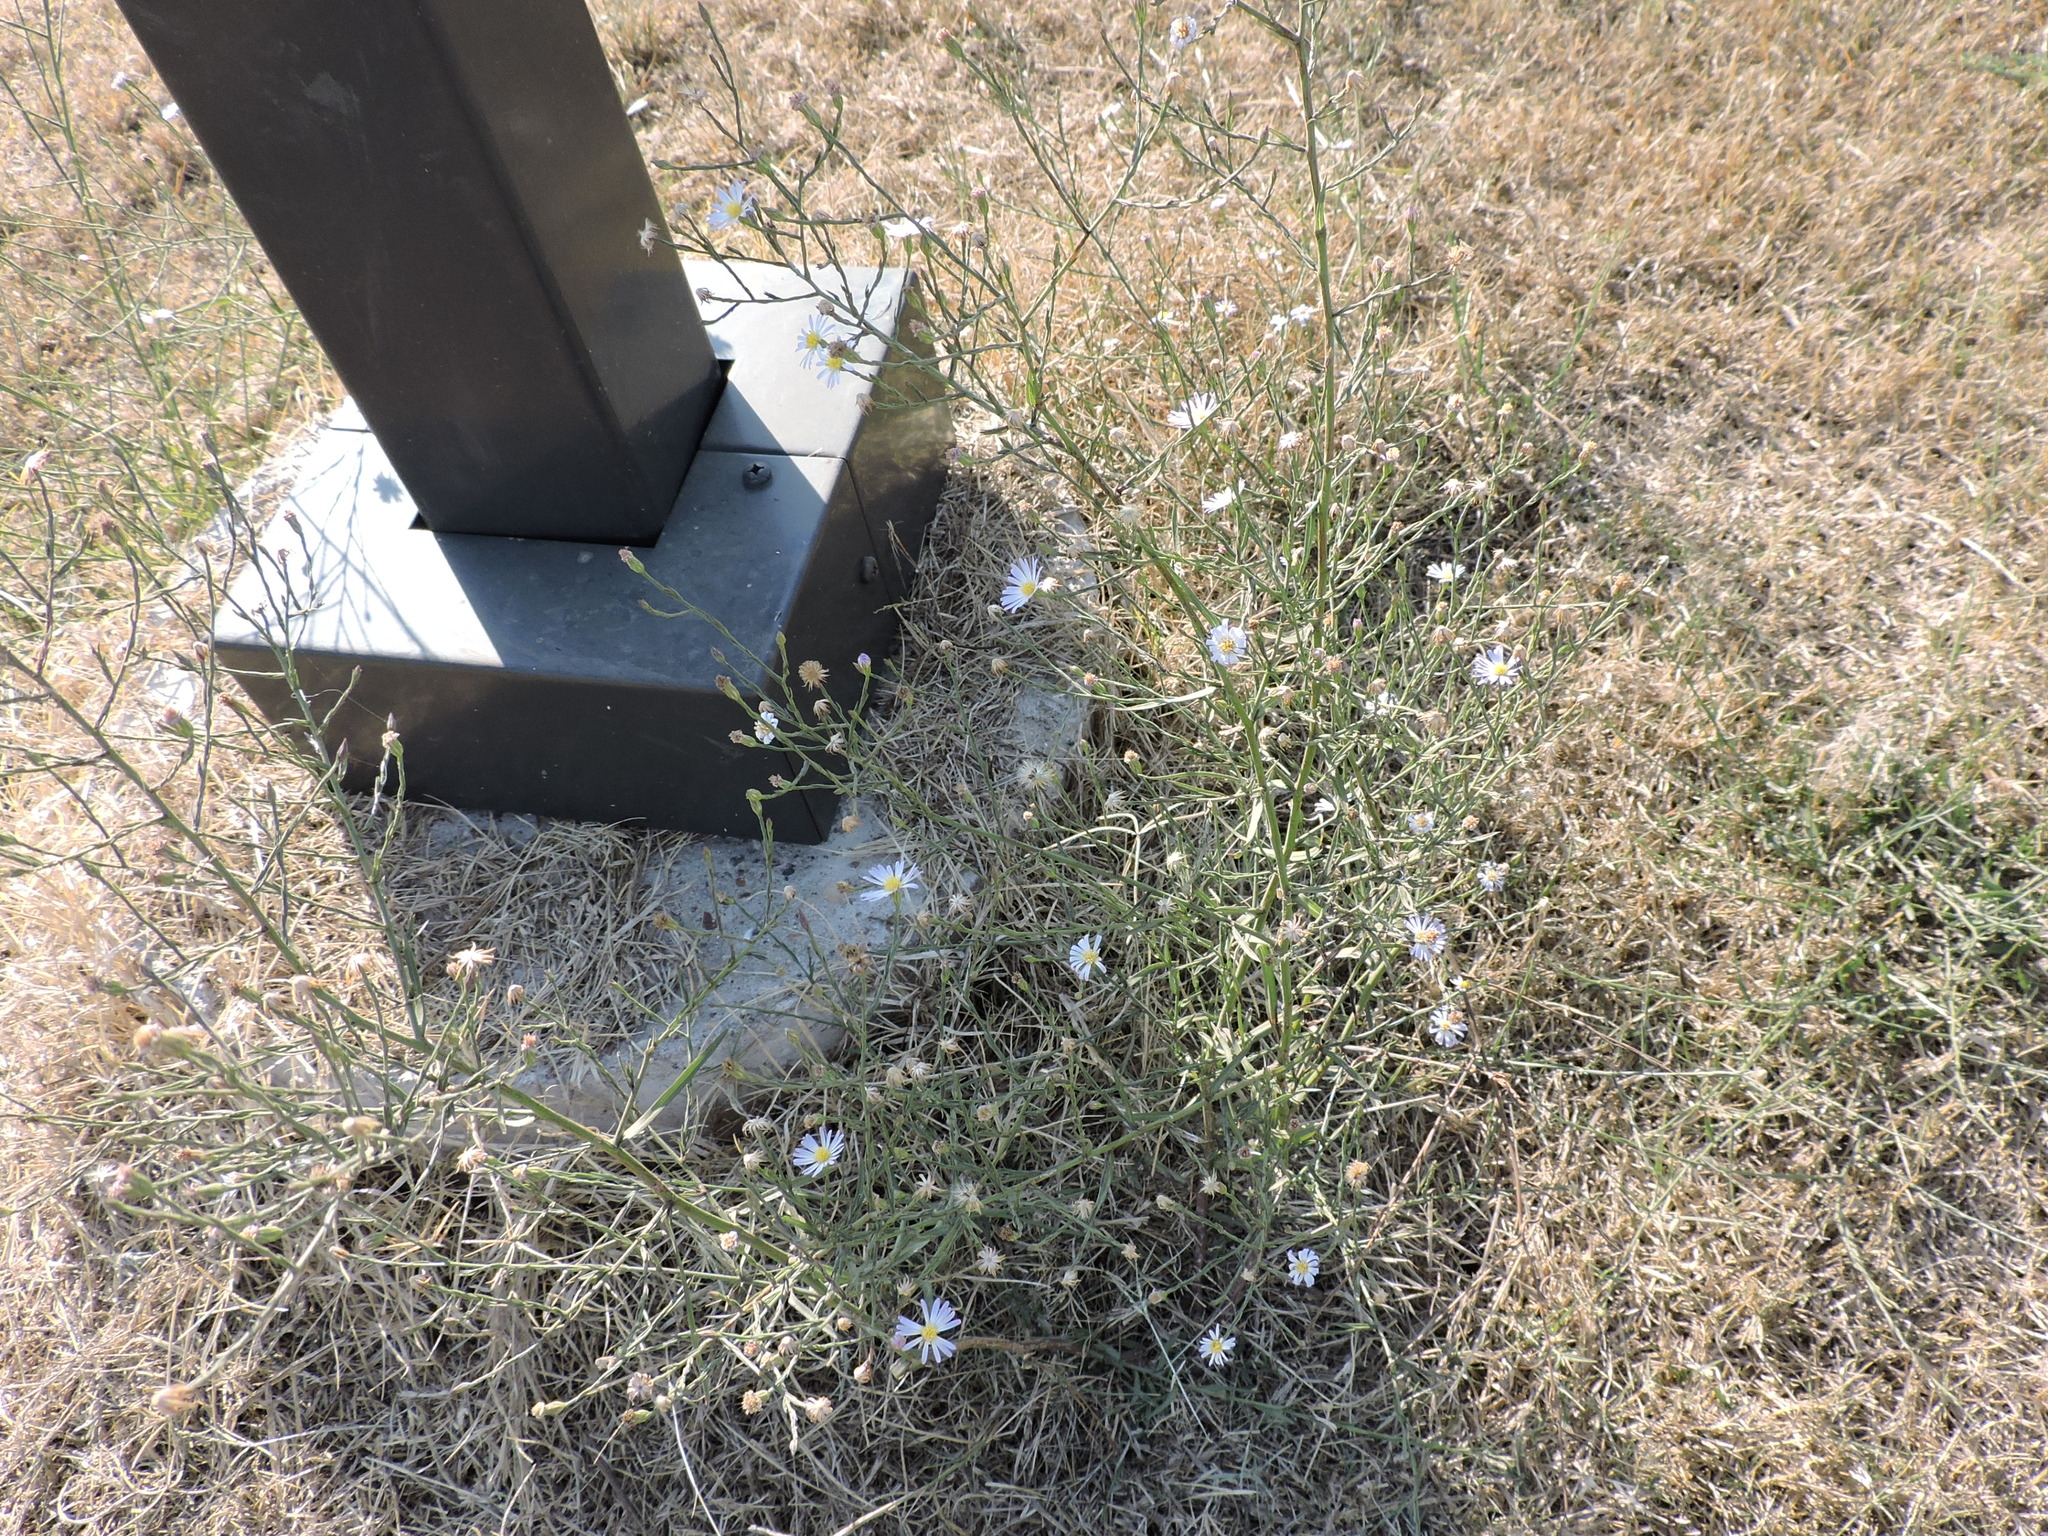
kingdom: Plantae
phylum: Tracheophyta
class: Magnoliopsida
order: Asterales
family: Asteraceae
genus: Symphyotrichum
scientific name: Symphyotrichum divaricatum
